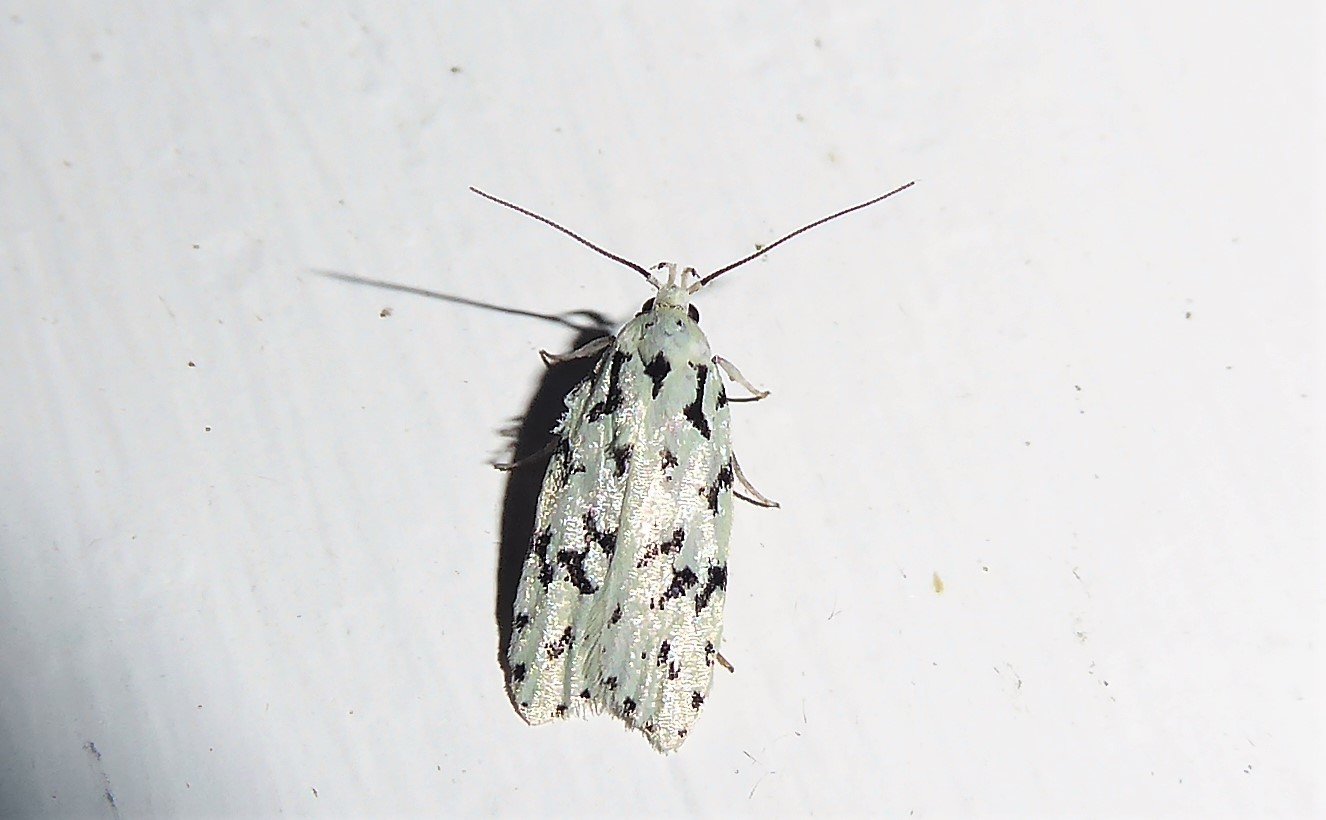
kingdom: Animalia
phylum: Arthropoda
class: Insecta
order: Lepidoptera
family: Oecophoridae
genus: Izatha
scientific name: Izatha huttoni
